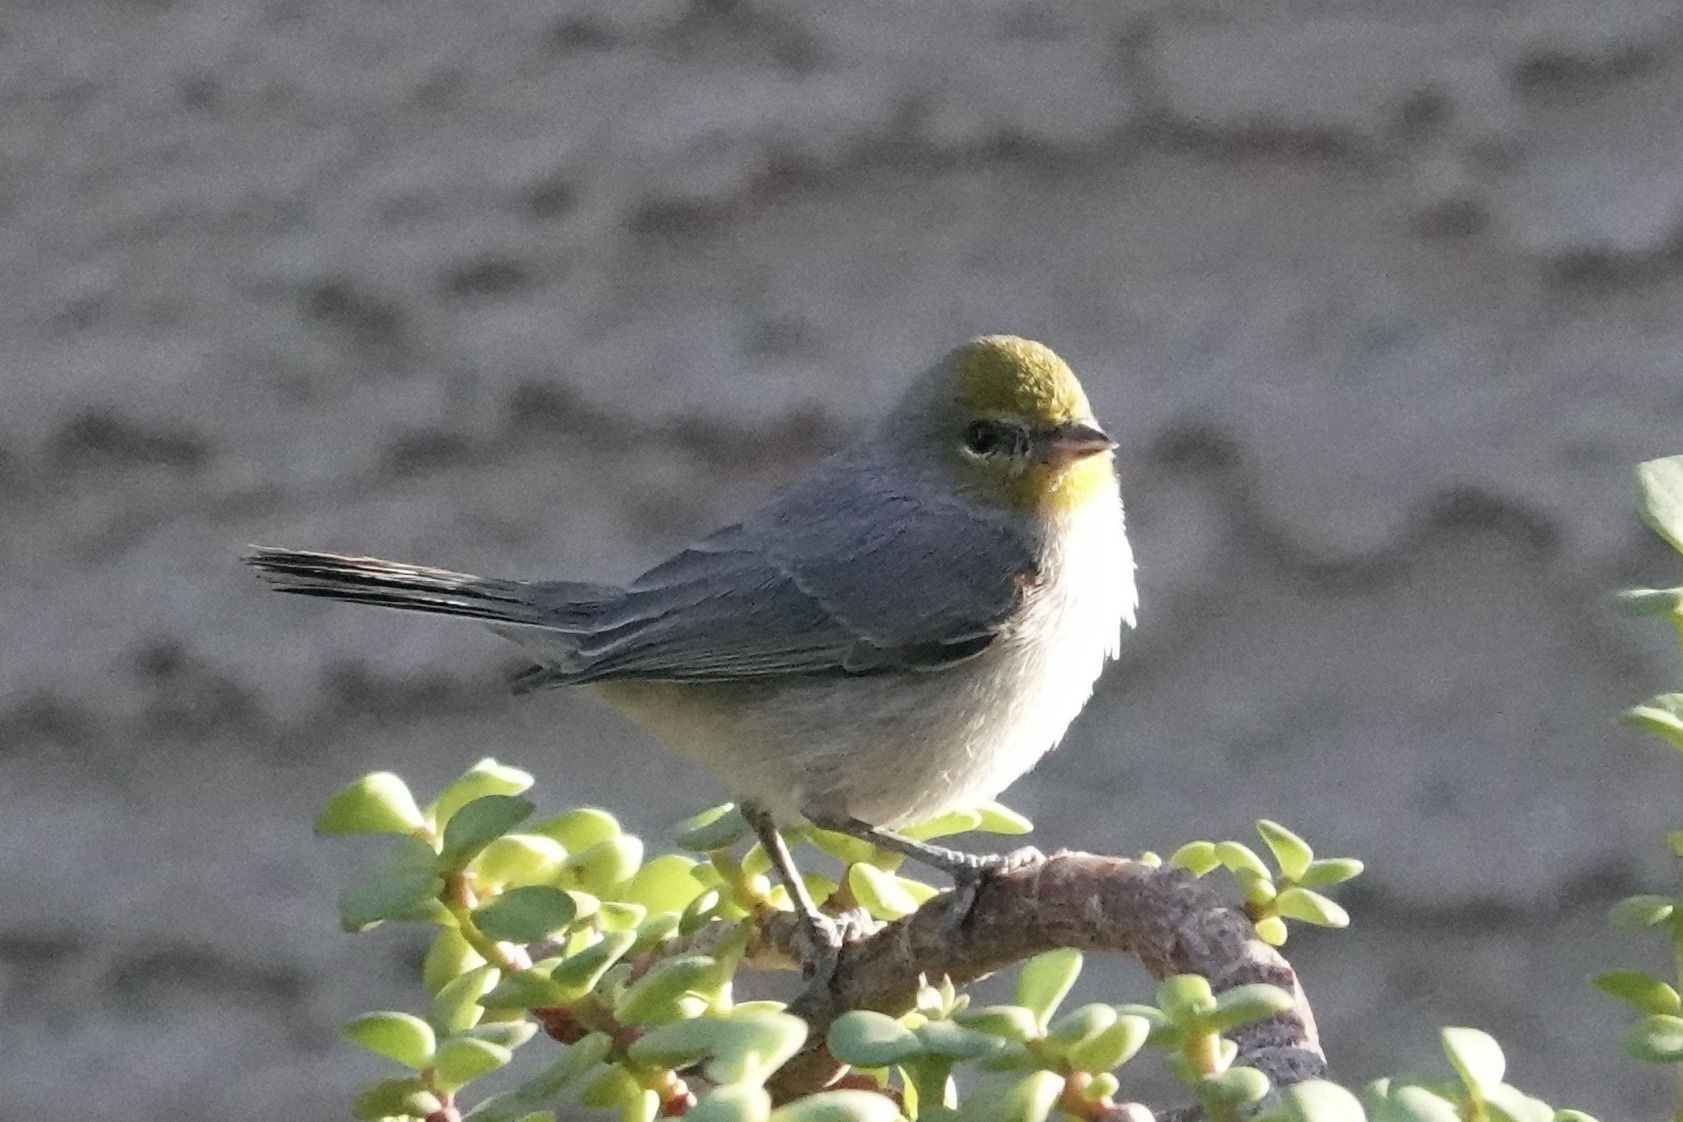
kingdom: Animalia
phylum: Chordata
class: Aves
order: Passeriformes
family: Remizidae
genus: Auriparus
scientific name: Auriparus flaviceps
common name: Verdin
